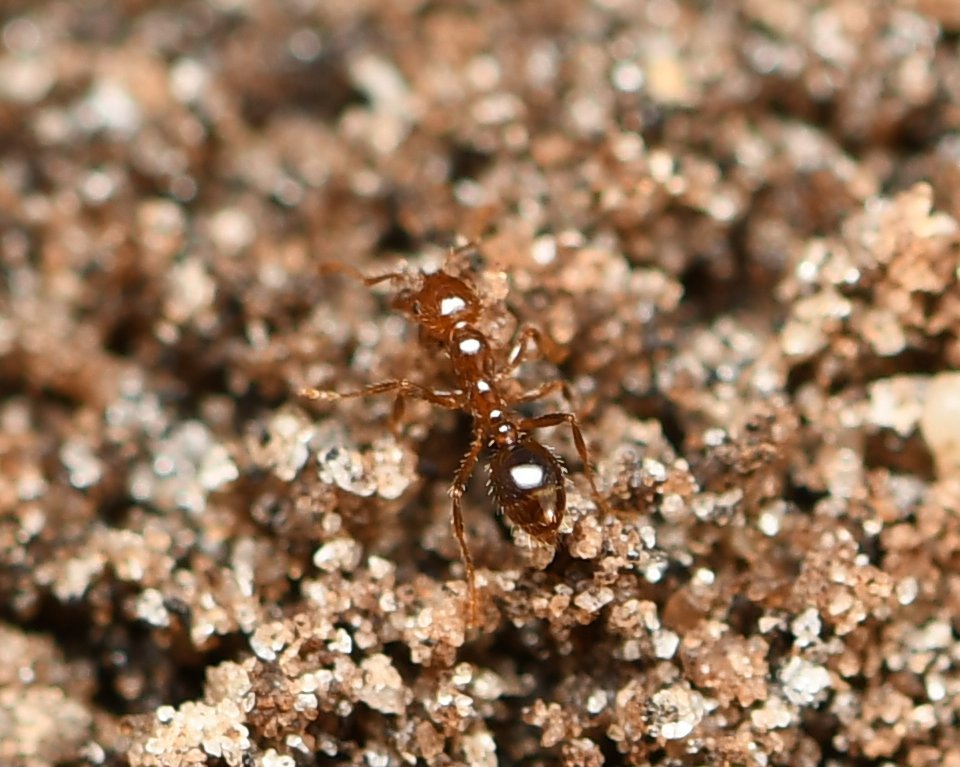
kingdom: Animalia
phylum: Arthropoda
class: Insecta
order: Hymenoptera
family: Formicidae
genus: Solenopsis
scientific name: Solenopsis invicta
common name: Red imported fire ant
